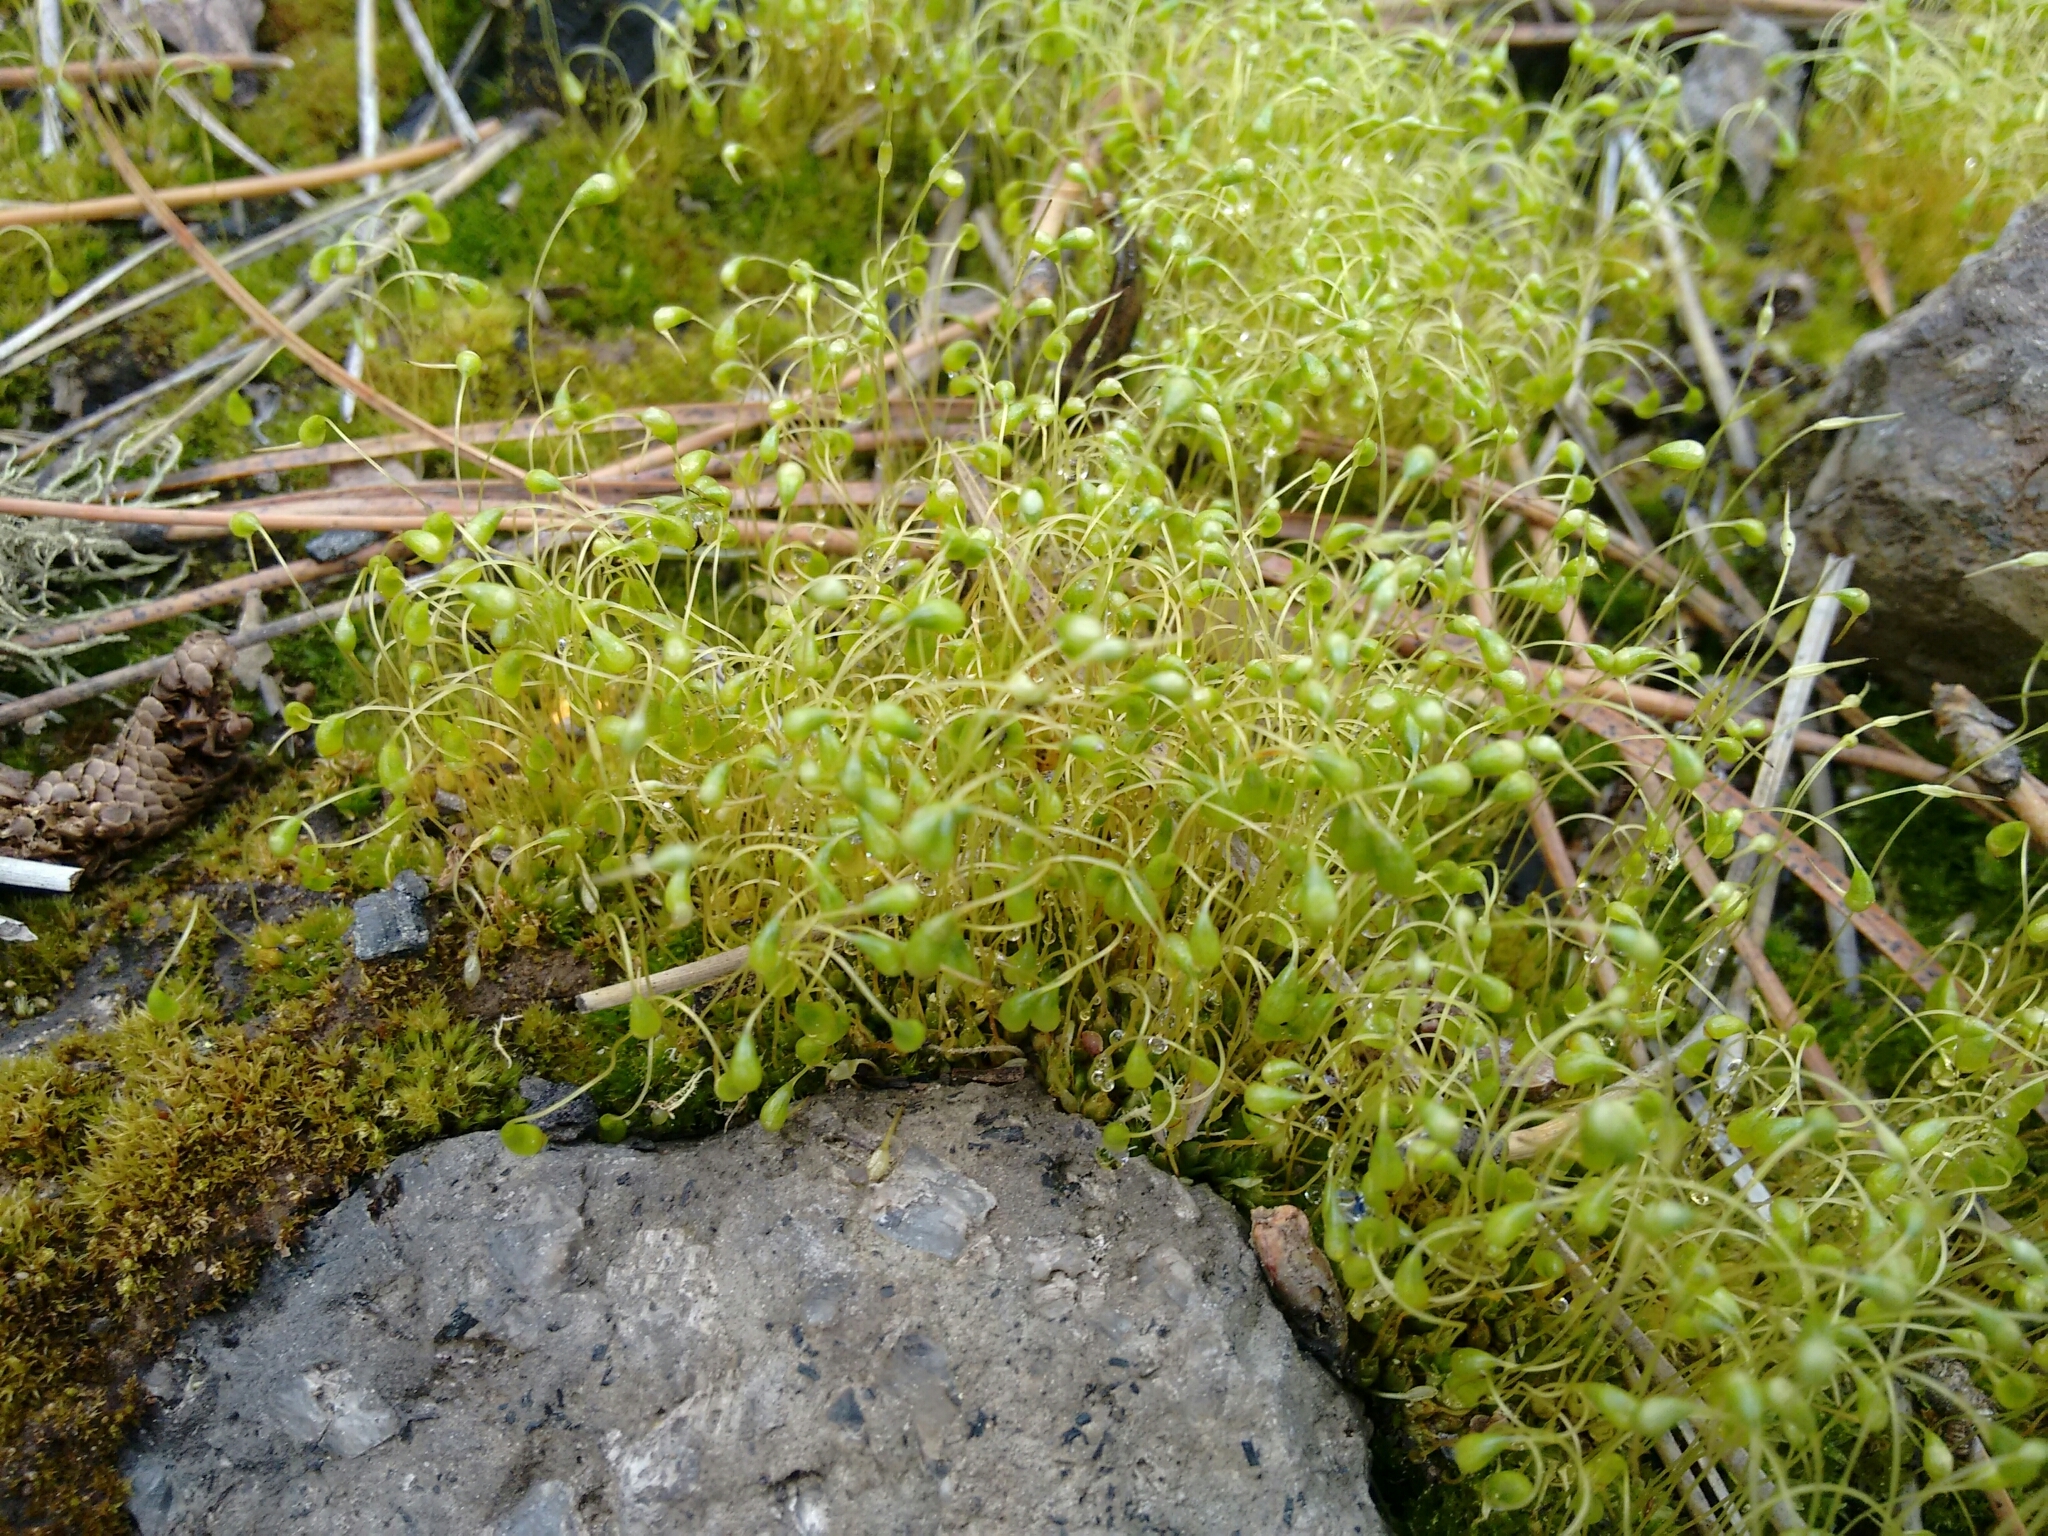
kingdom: Plantae
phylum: Bryophyta
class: Bryopsida
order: Funariales
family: Funariaceae
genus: Funaria
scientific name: Funaria hygrometrica
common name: Common cord moss
